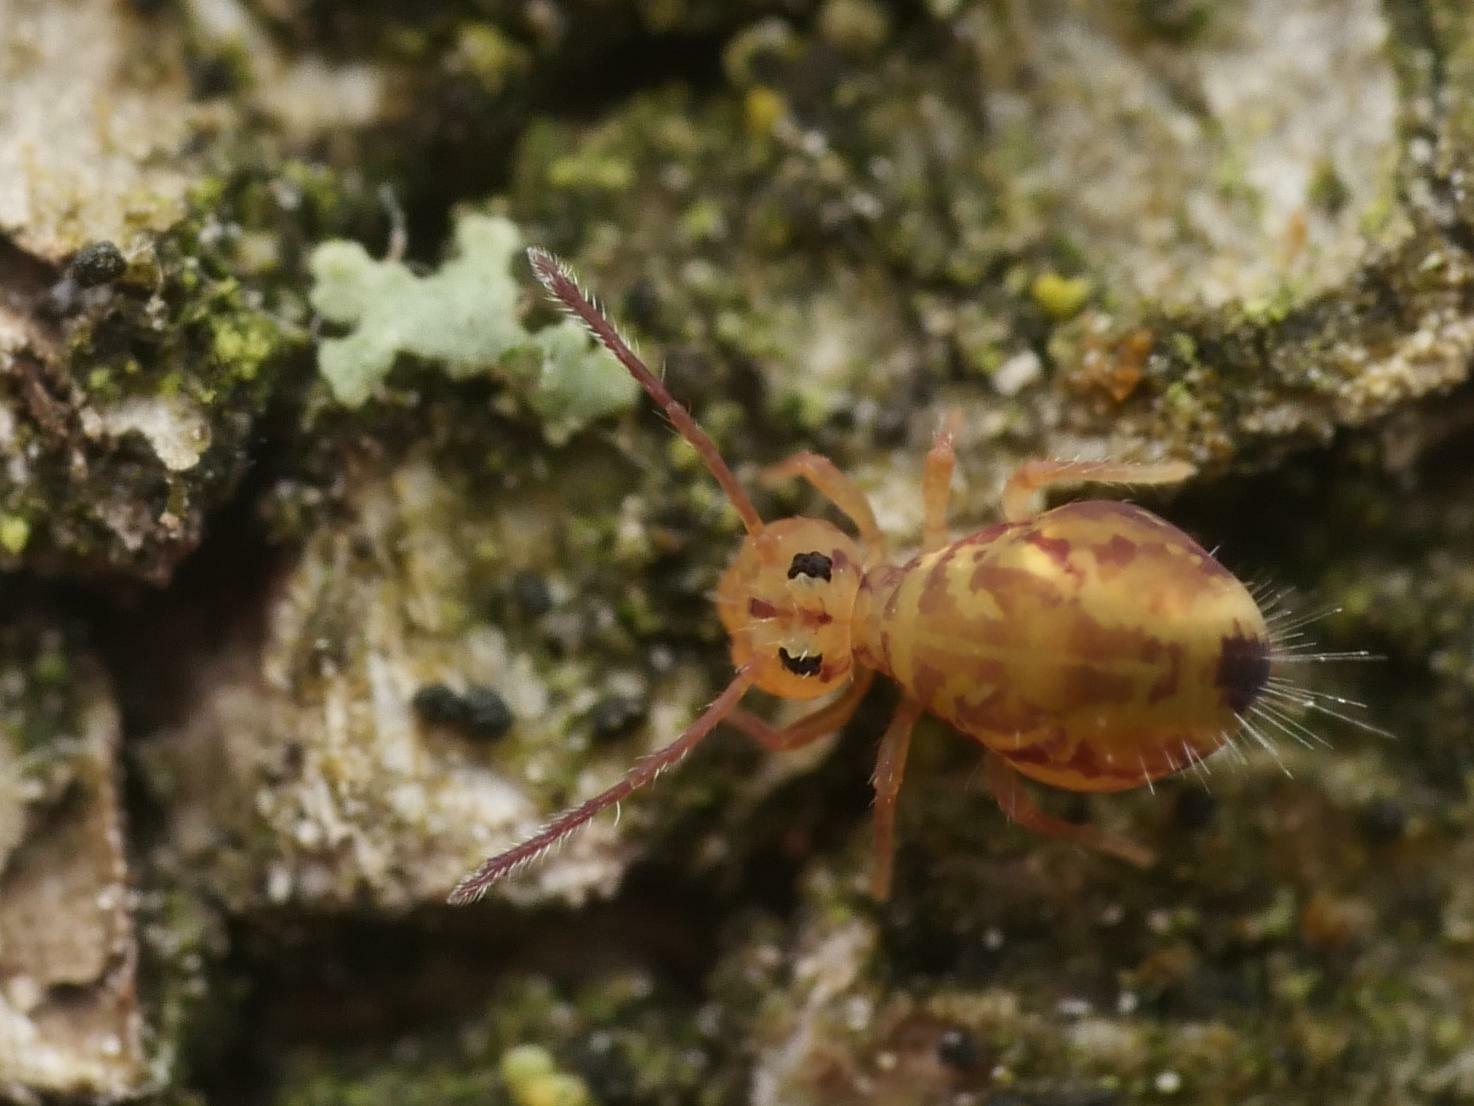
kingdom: Animalia
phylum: Arthropoda
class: Collembola
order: Symphypleona
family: Dicyrtomidae
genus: Dicyrtomina
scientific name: Dicyrtomina ornata
